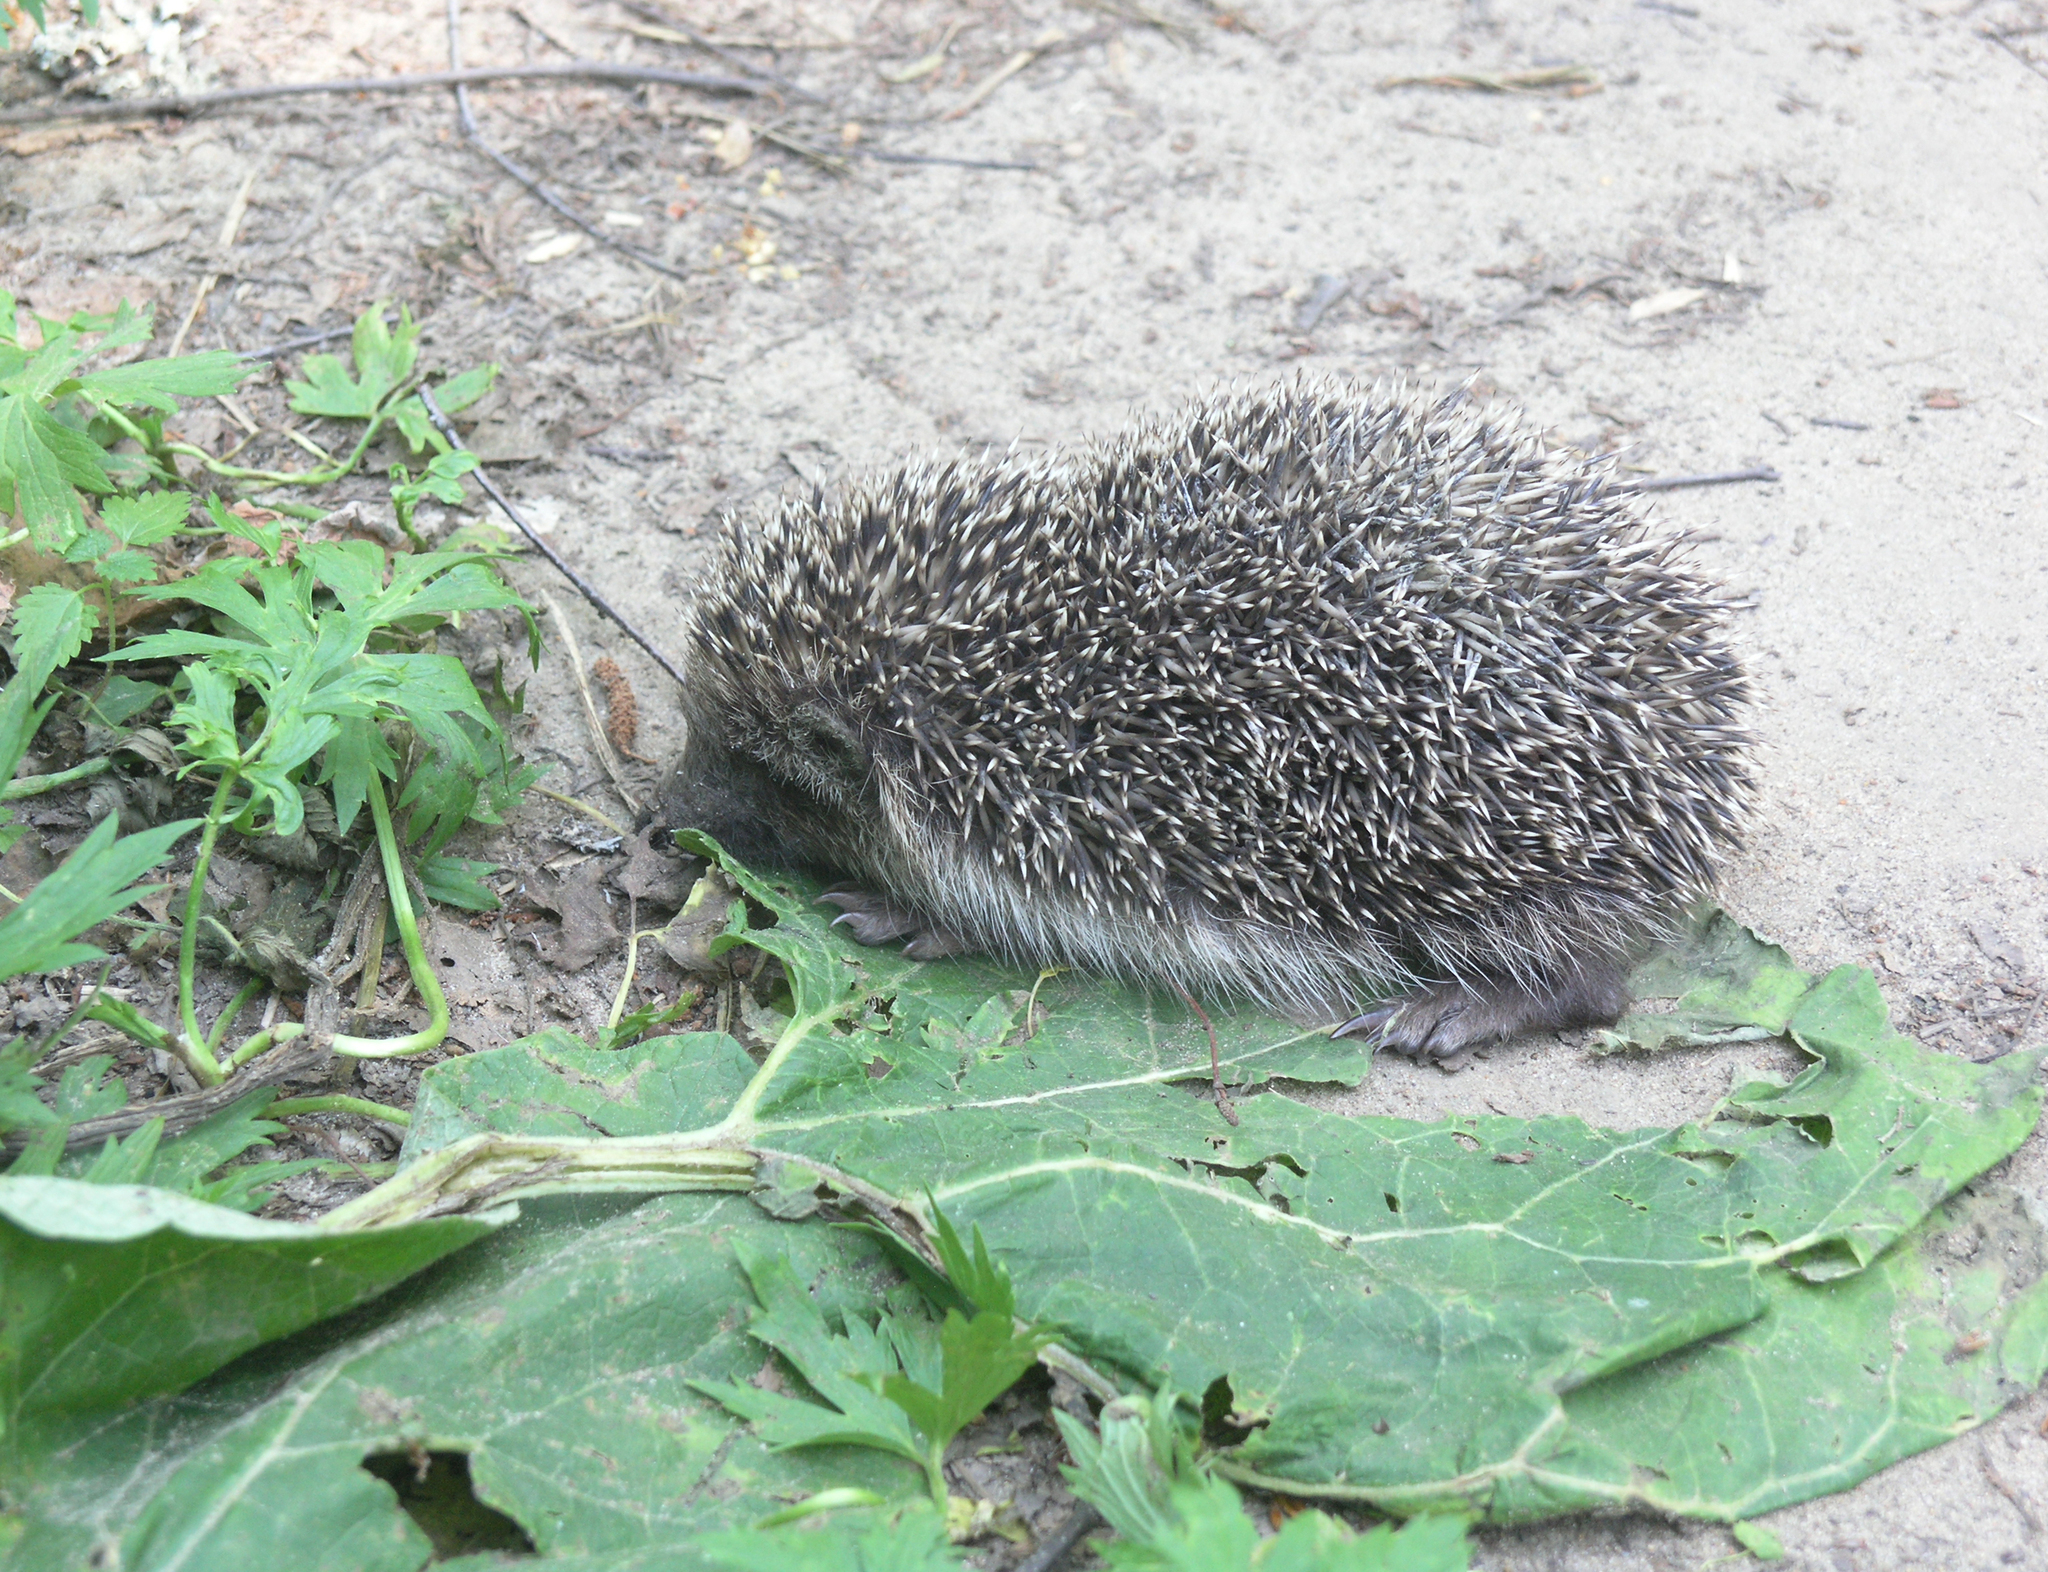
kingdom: Animalia
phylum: Chordata
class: Mammalia
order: Erinaceomorpha
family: Erinaceidae
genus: Erinaceus
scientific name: Erinaceus roumanicus
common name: Northern white-breasted hedgehog
